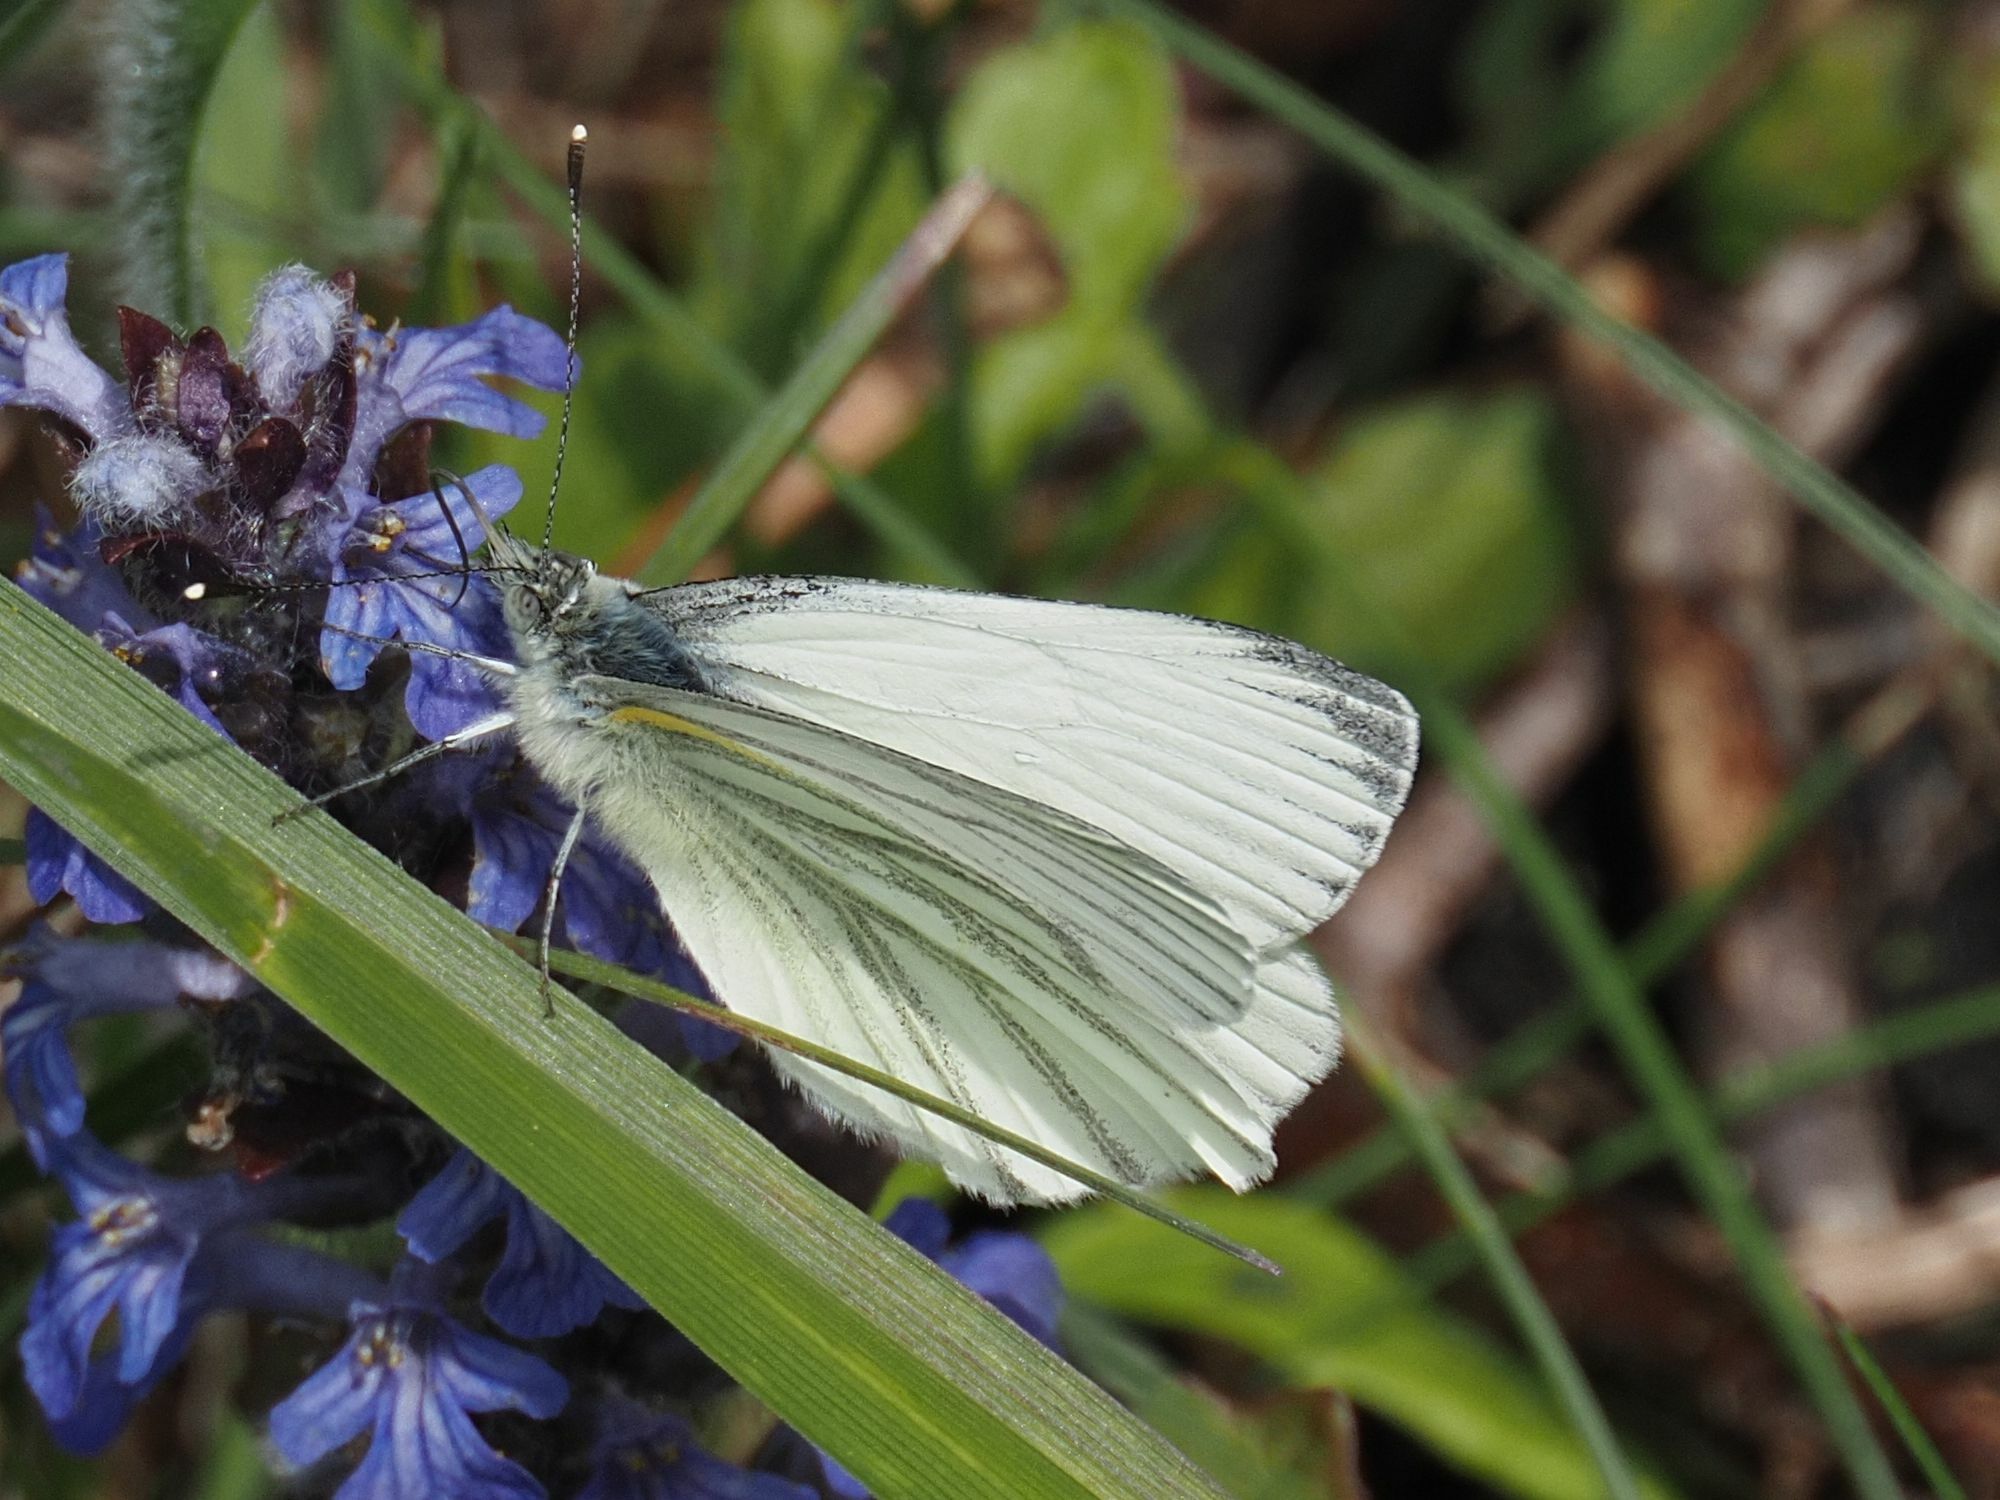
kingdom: Animalia
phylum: Arthropoda
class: Insecta
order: Lepidoptera
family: Pieridae
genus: Pieris
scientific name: Pieris napi
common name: Green-veined white
